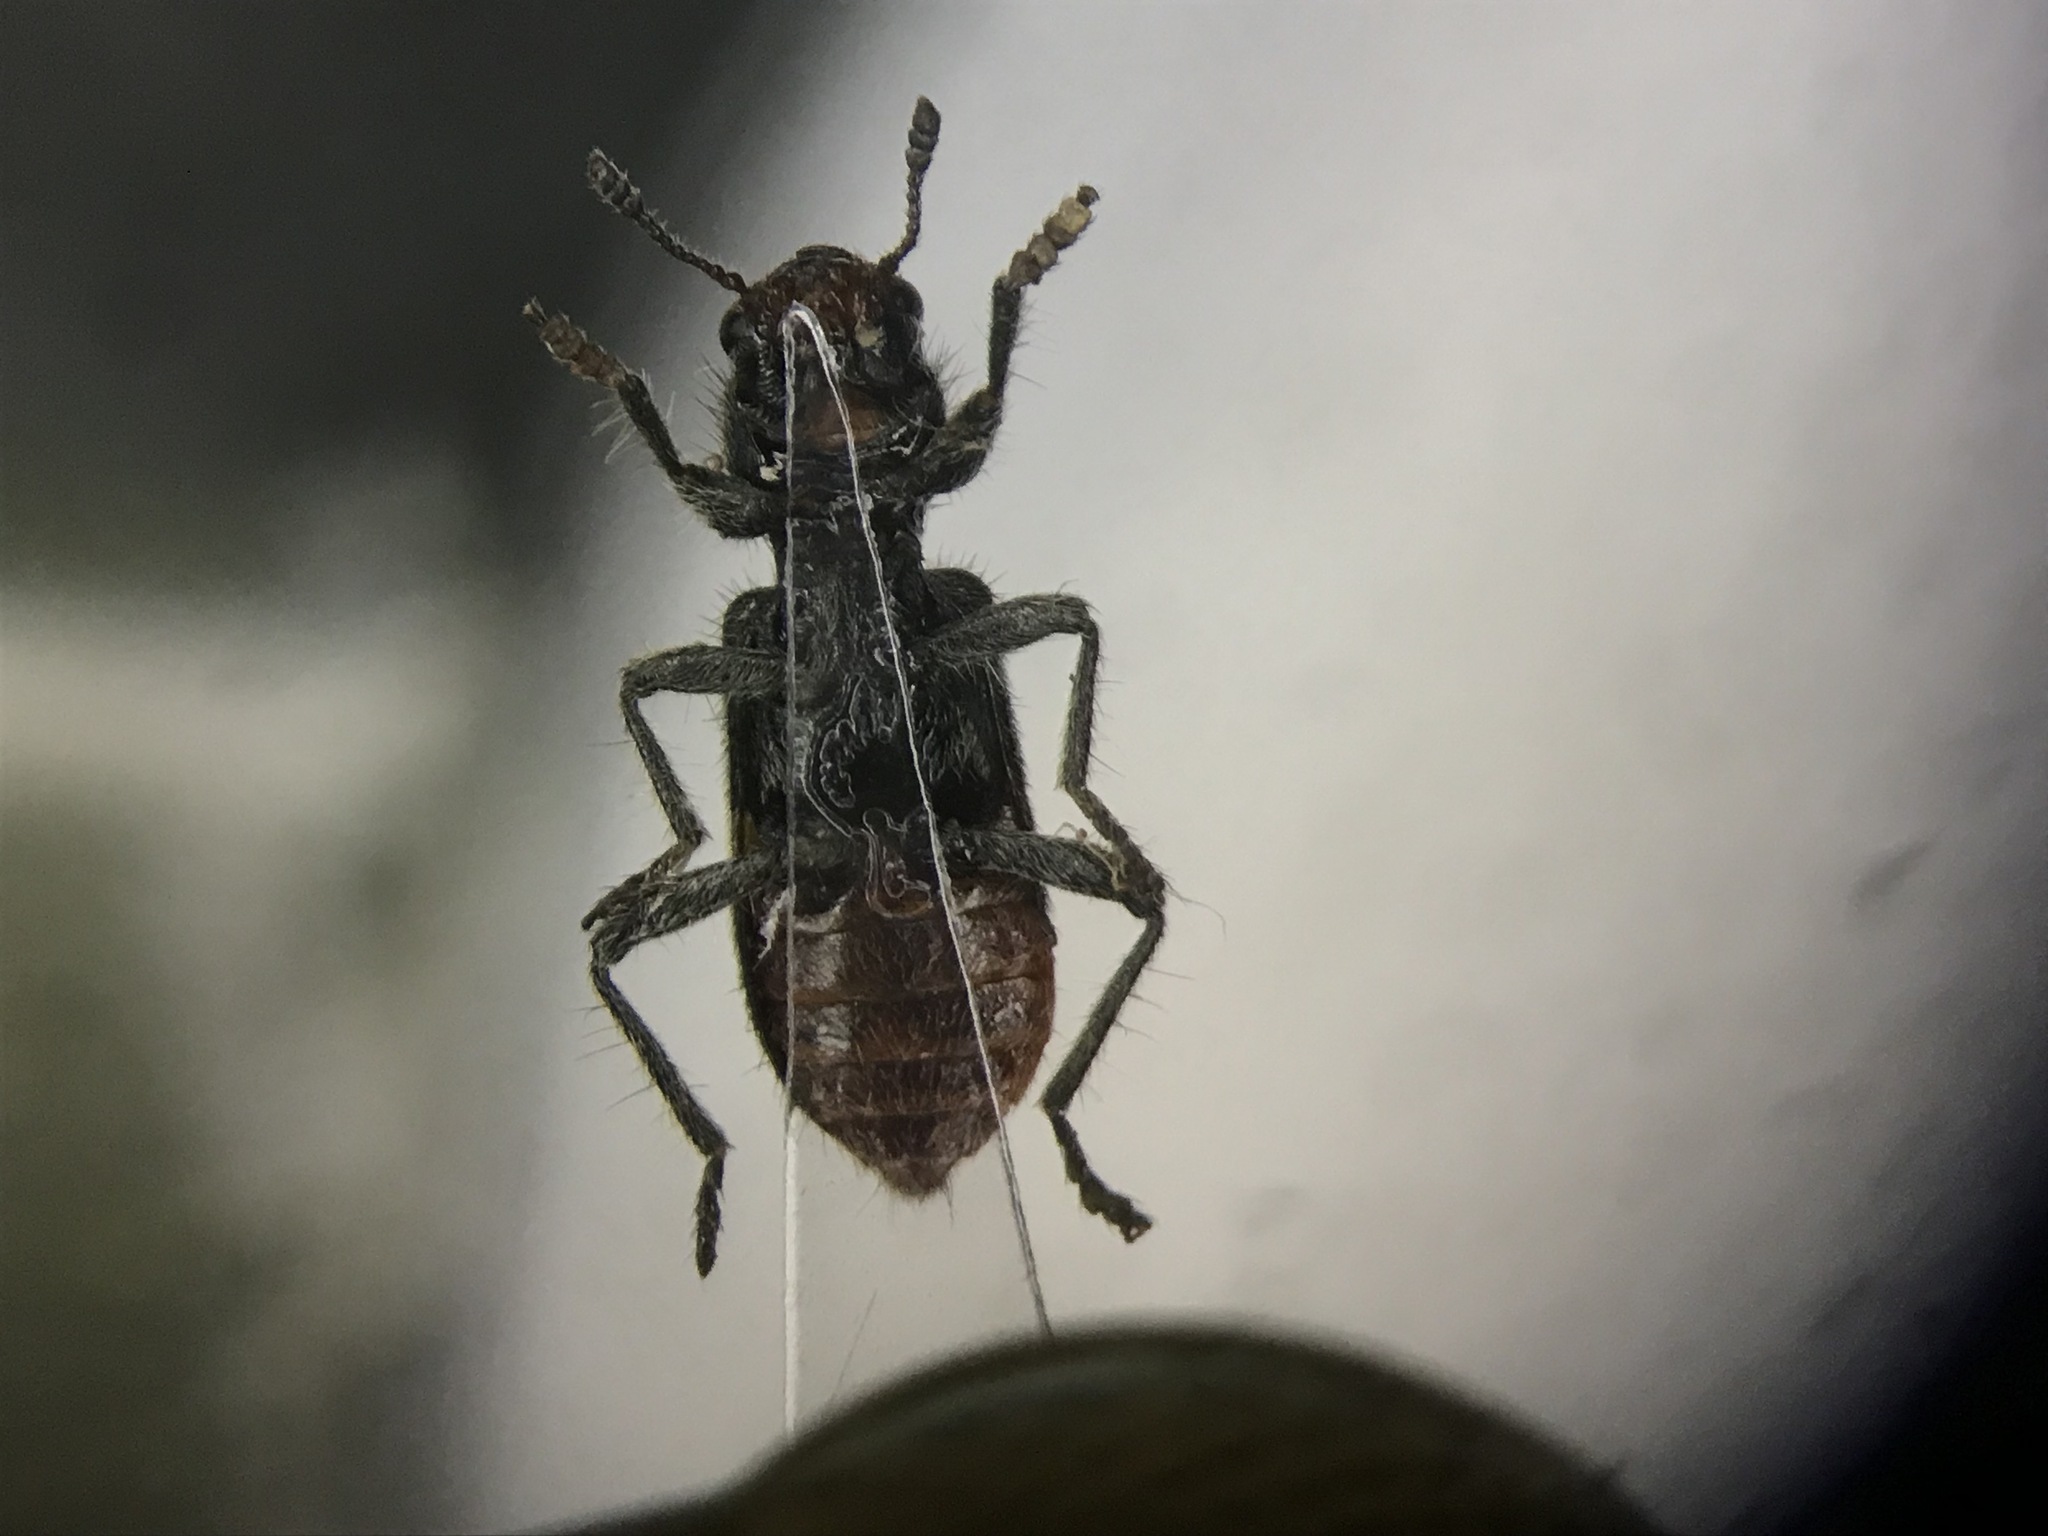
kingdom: Animalia
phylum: Arthropoda
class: Insecta
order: Coleoptera
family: Cleridae
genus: Enoclerus
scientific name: Enoclerus nigripes
